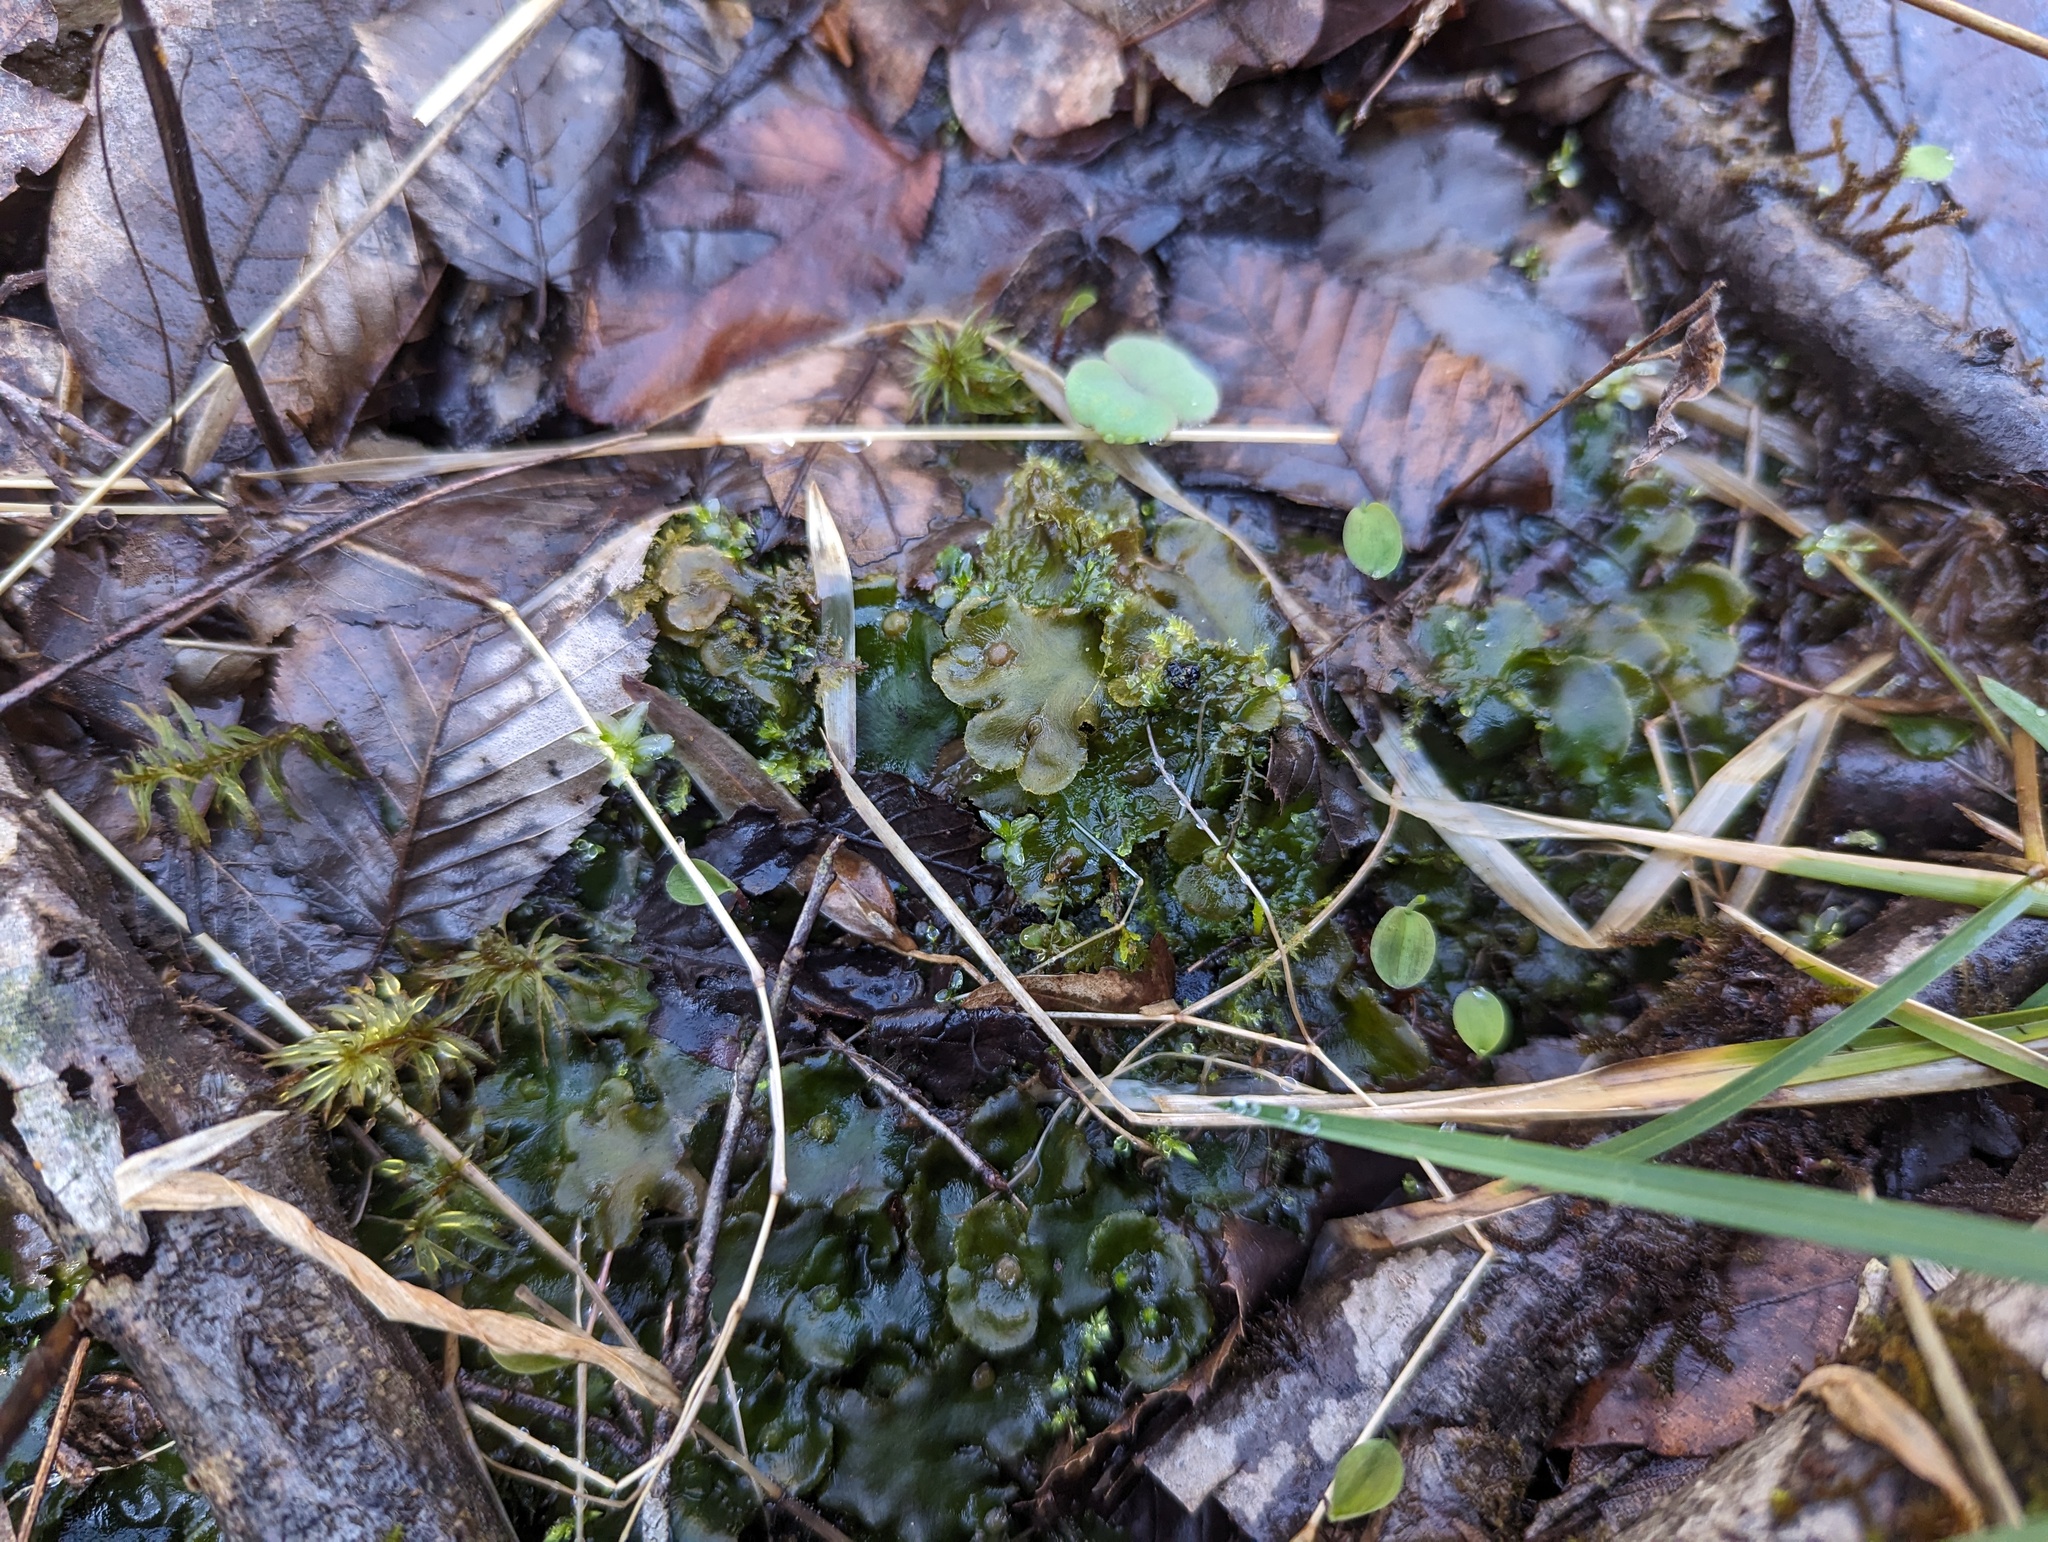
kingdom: Plantae
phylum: Marchantiophyta
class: Marchantiopsida
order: Marchantiales
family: Dumortieraceae
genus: Dumortiera
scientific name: Dumortiera hirsuta
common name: Dumortier's liverwort
